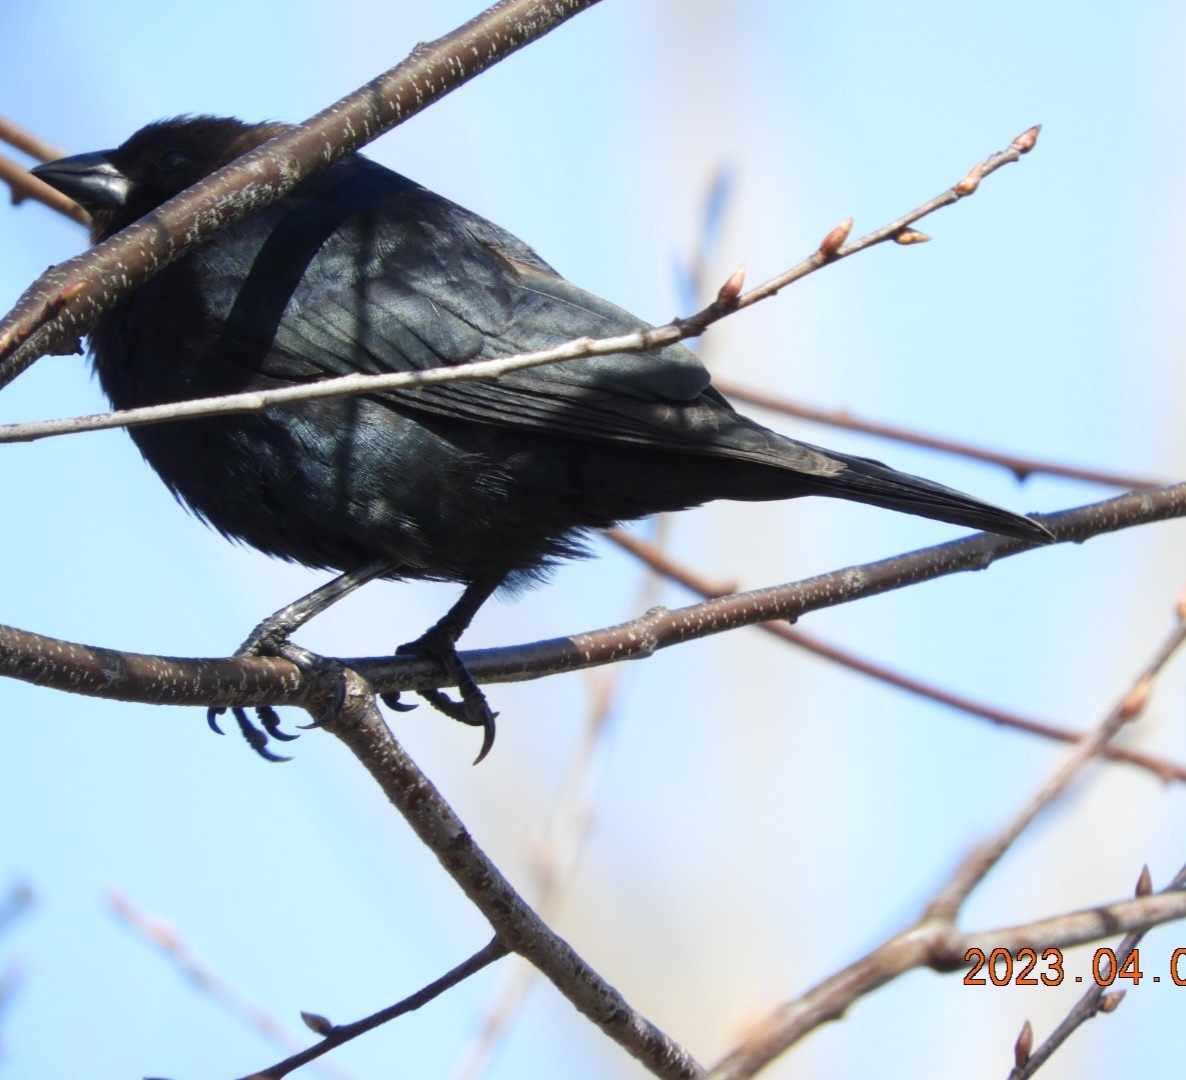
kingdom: Animalia
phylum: Chordata
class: Aves
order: Passeriformes
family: Icteridae
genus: Molothrus
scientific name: Molothrus ater
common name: Brown-headed cowbird
